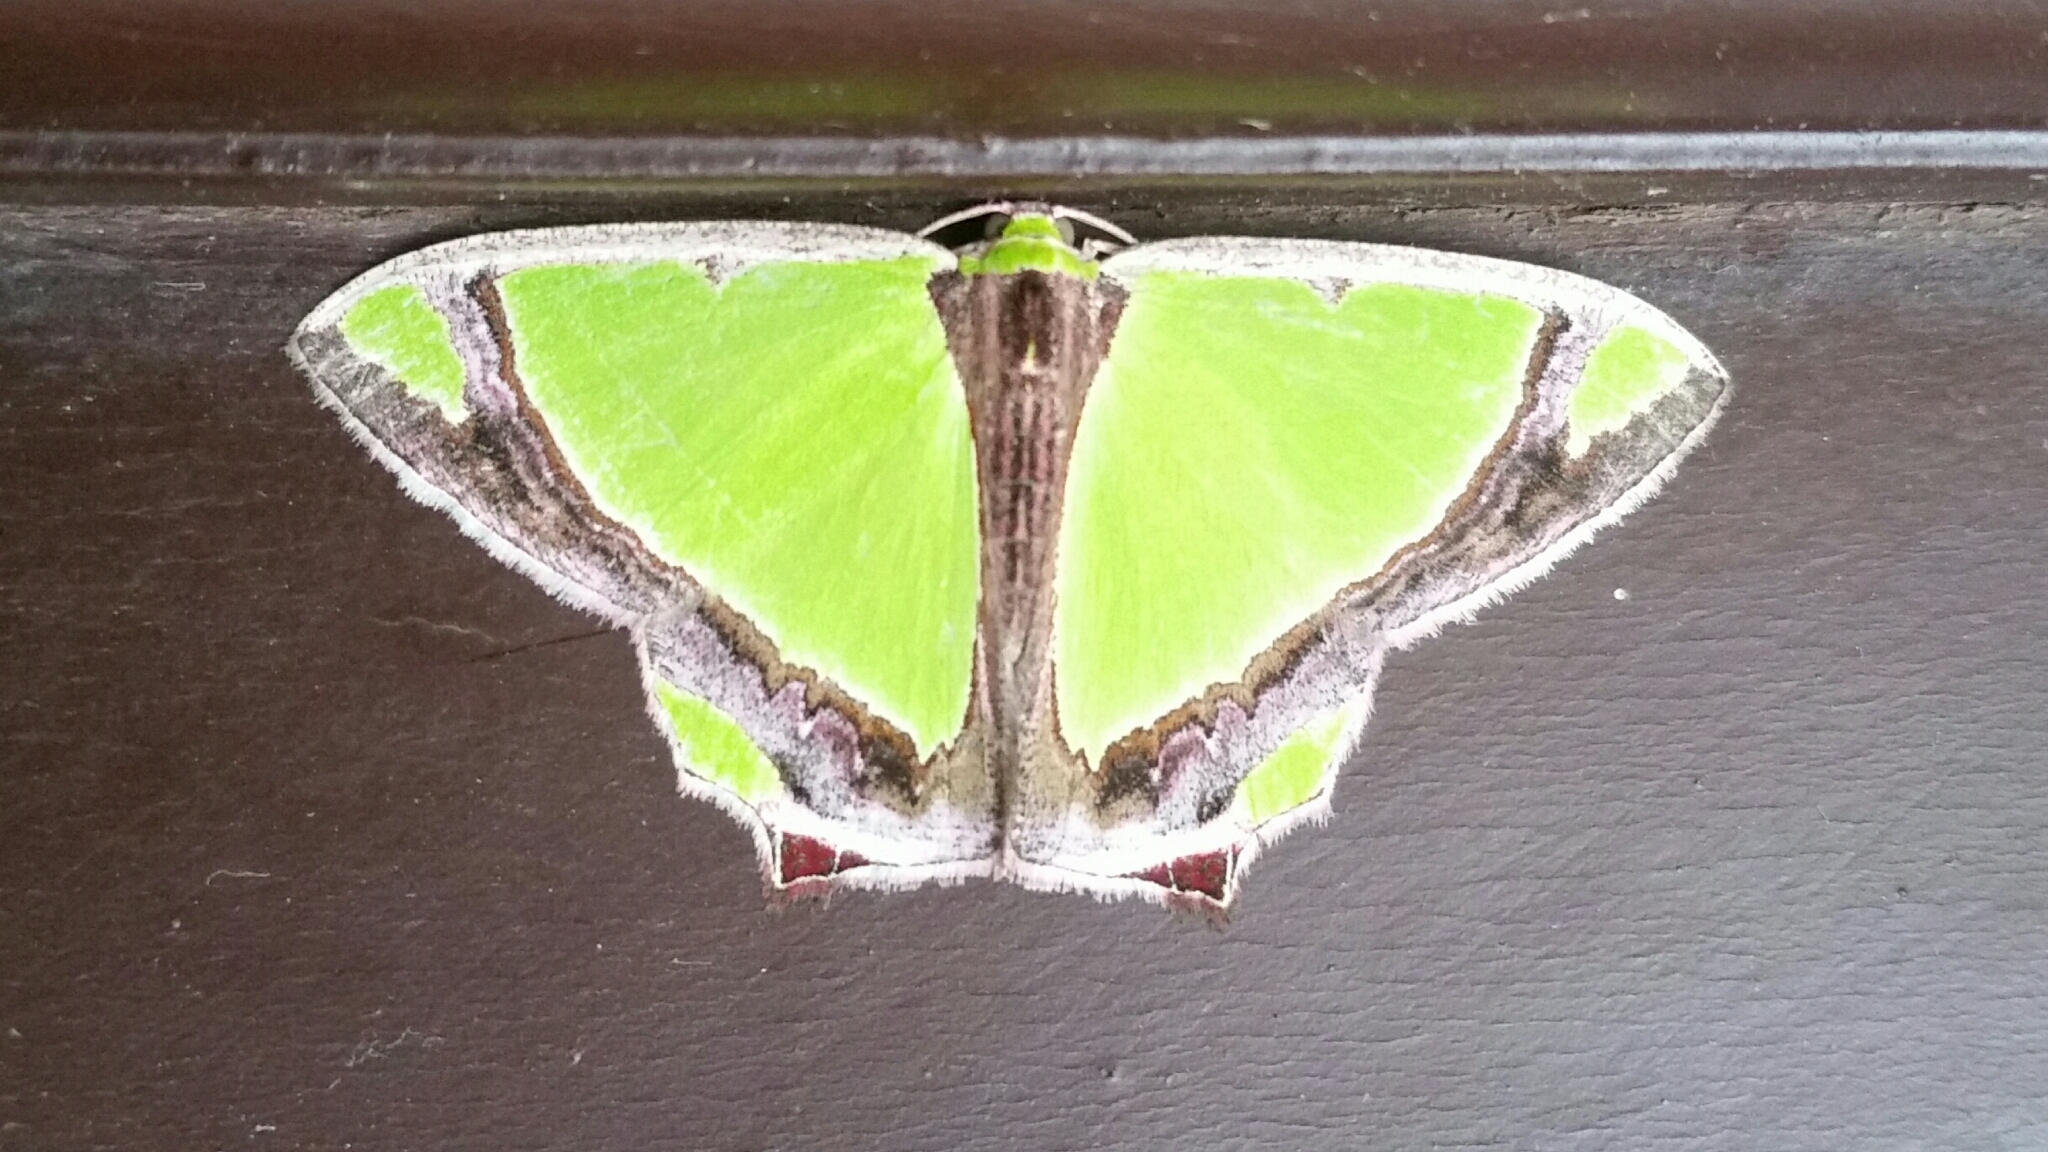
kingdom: Animalia
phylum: Arthropoda
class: Insecta
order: Lepidoptera
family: Geometridae
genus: Agathia
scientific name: Agathia laetata
